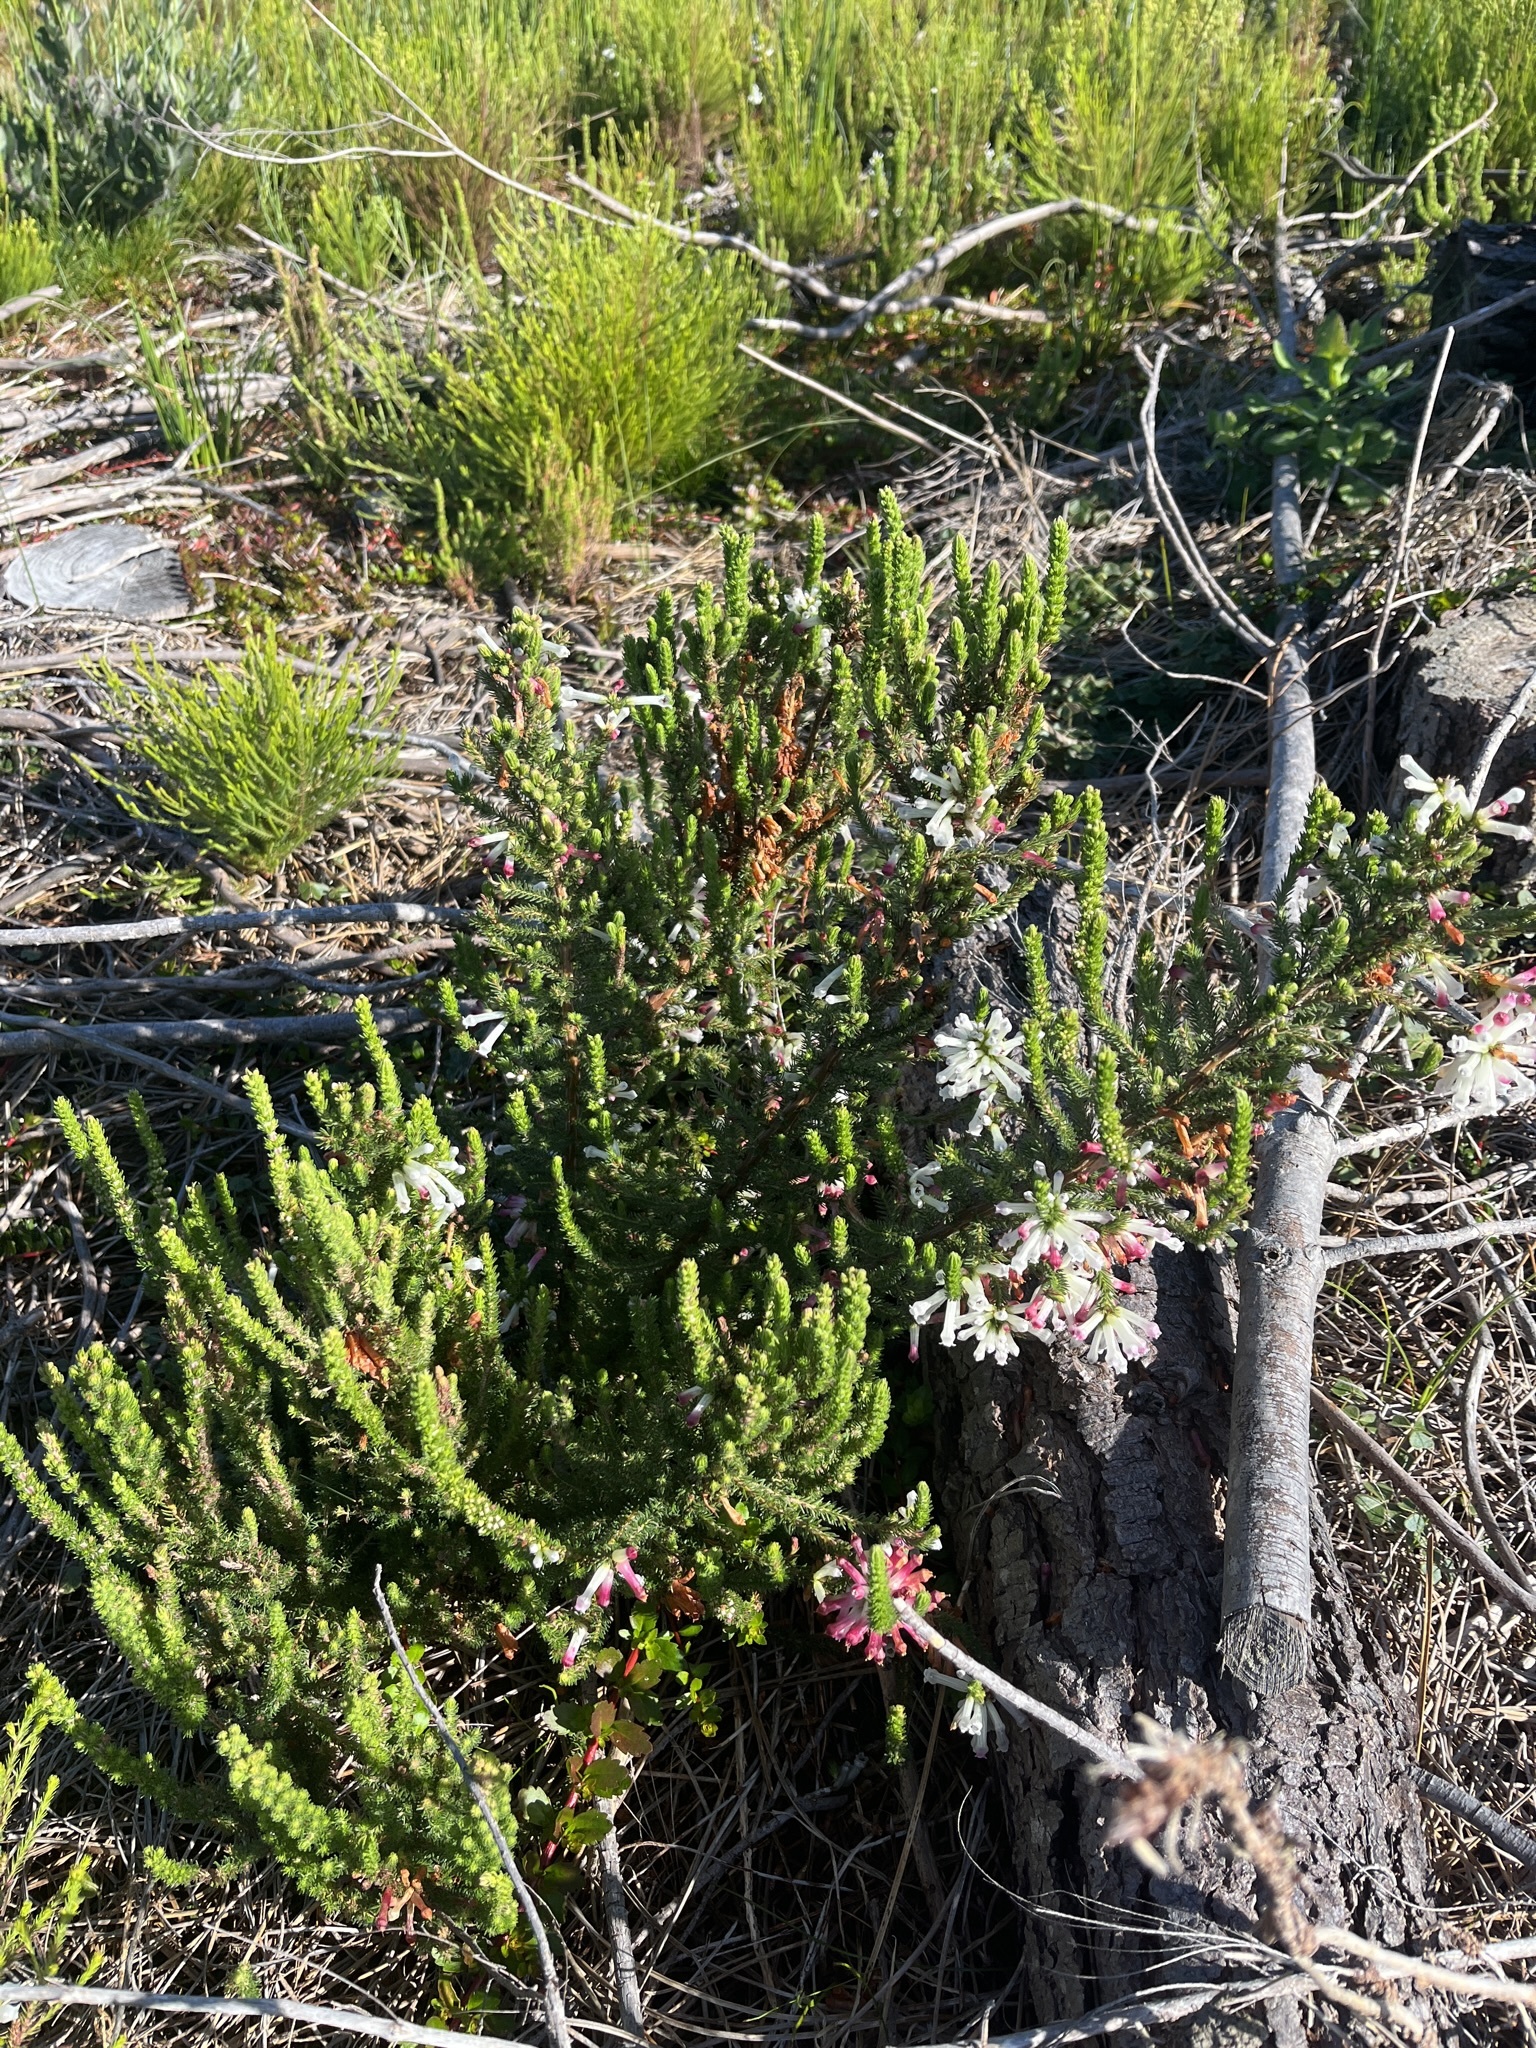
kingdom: Plantae
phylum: Tracheophyta
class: Magnoliopsida
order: Ericales
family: Ericaceae
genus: Erica
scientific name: Erica colorans
